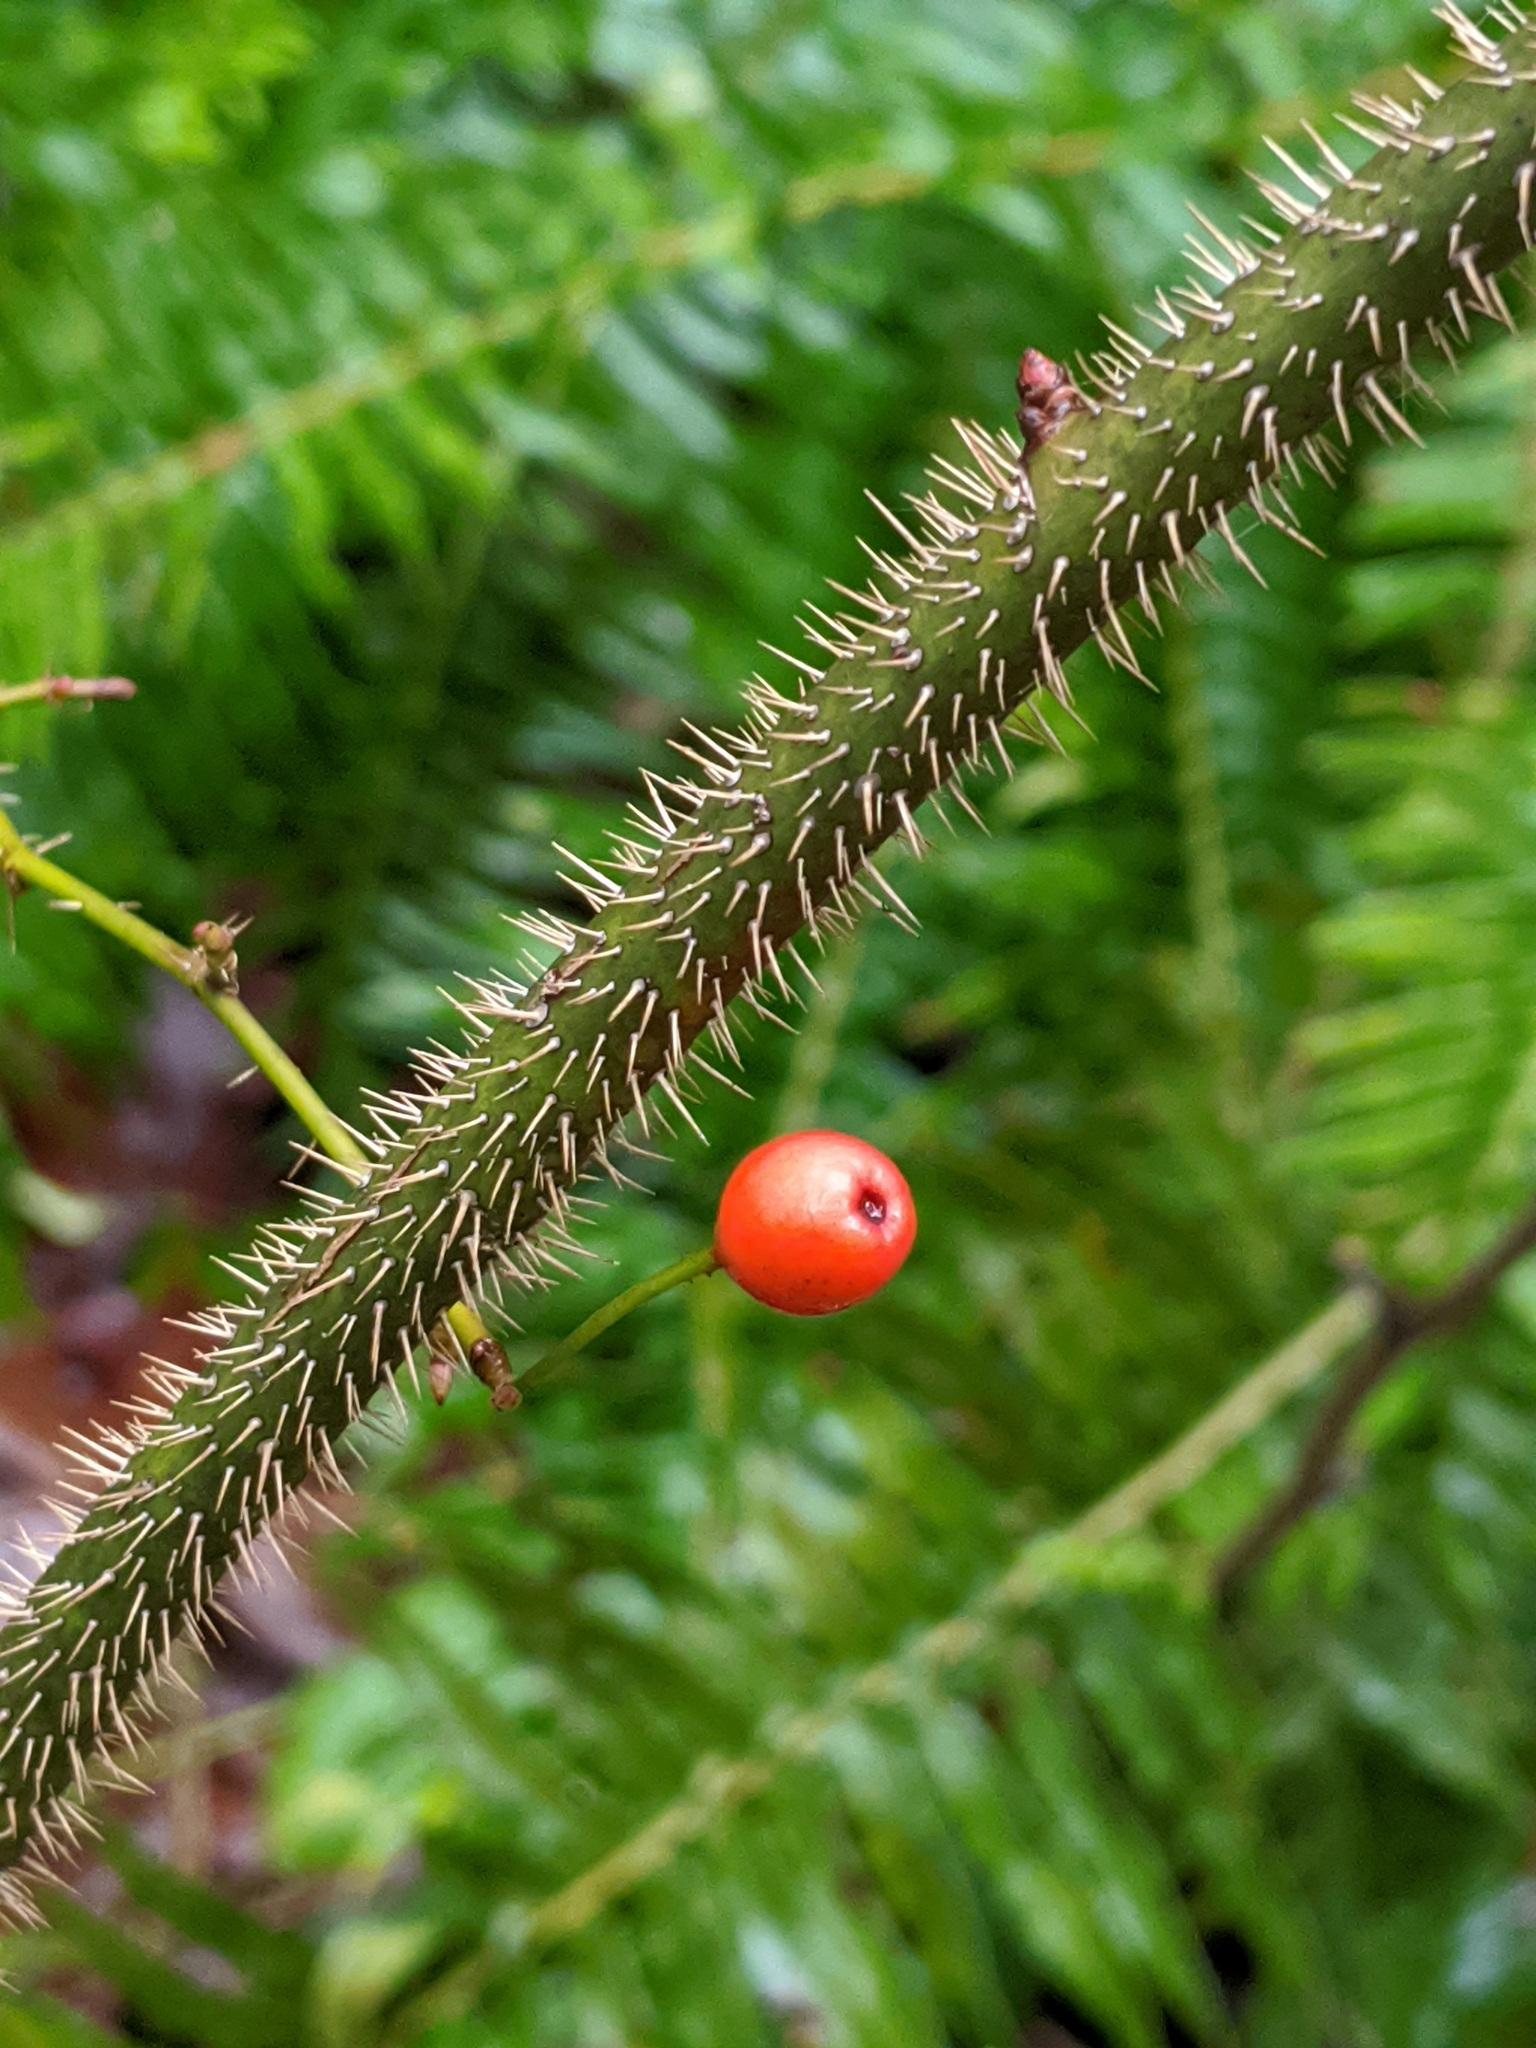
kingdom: Plantae
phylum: Tracheophyta
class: Magnoliopsida
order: Rosales
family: Rosaceae
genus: Rosa
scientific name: Rosa gymnocarpa
